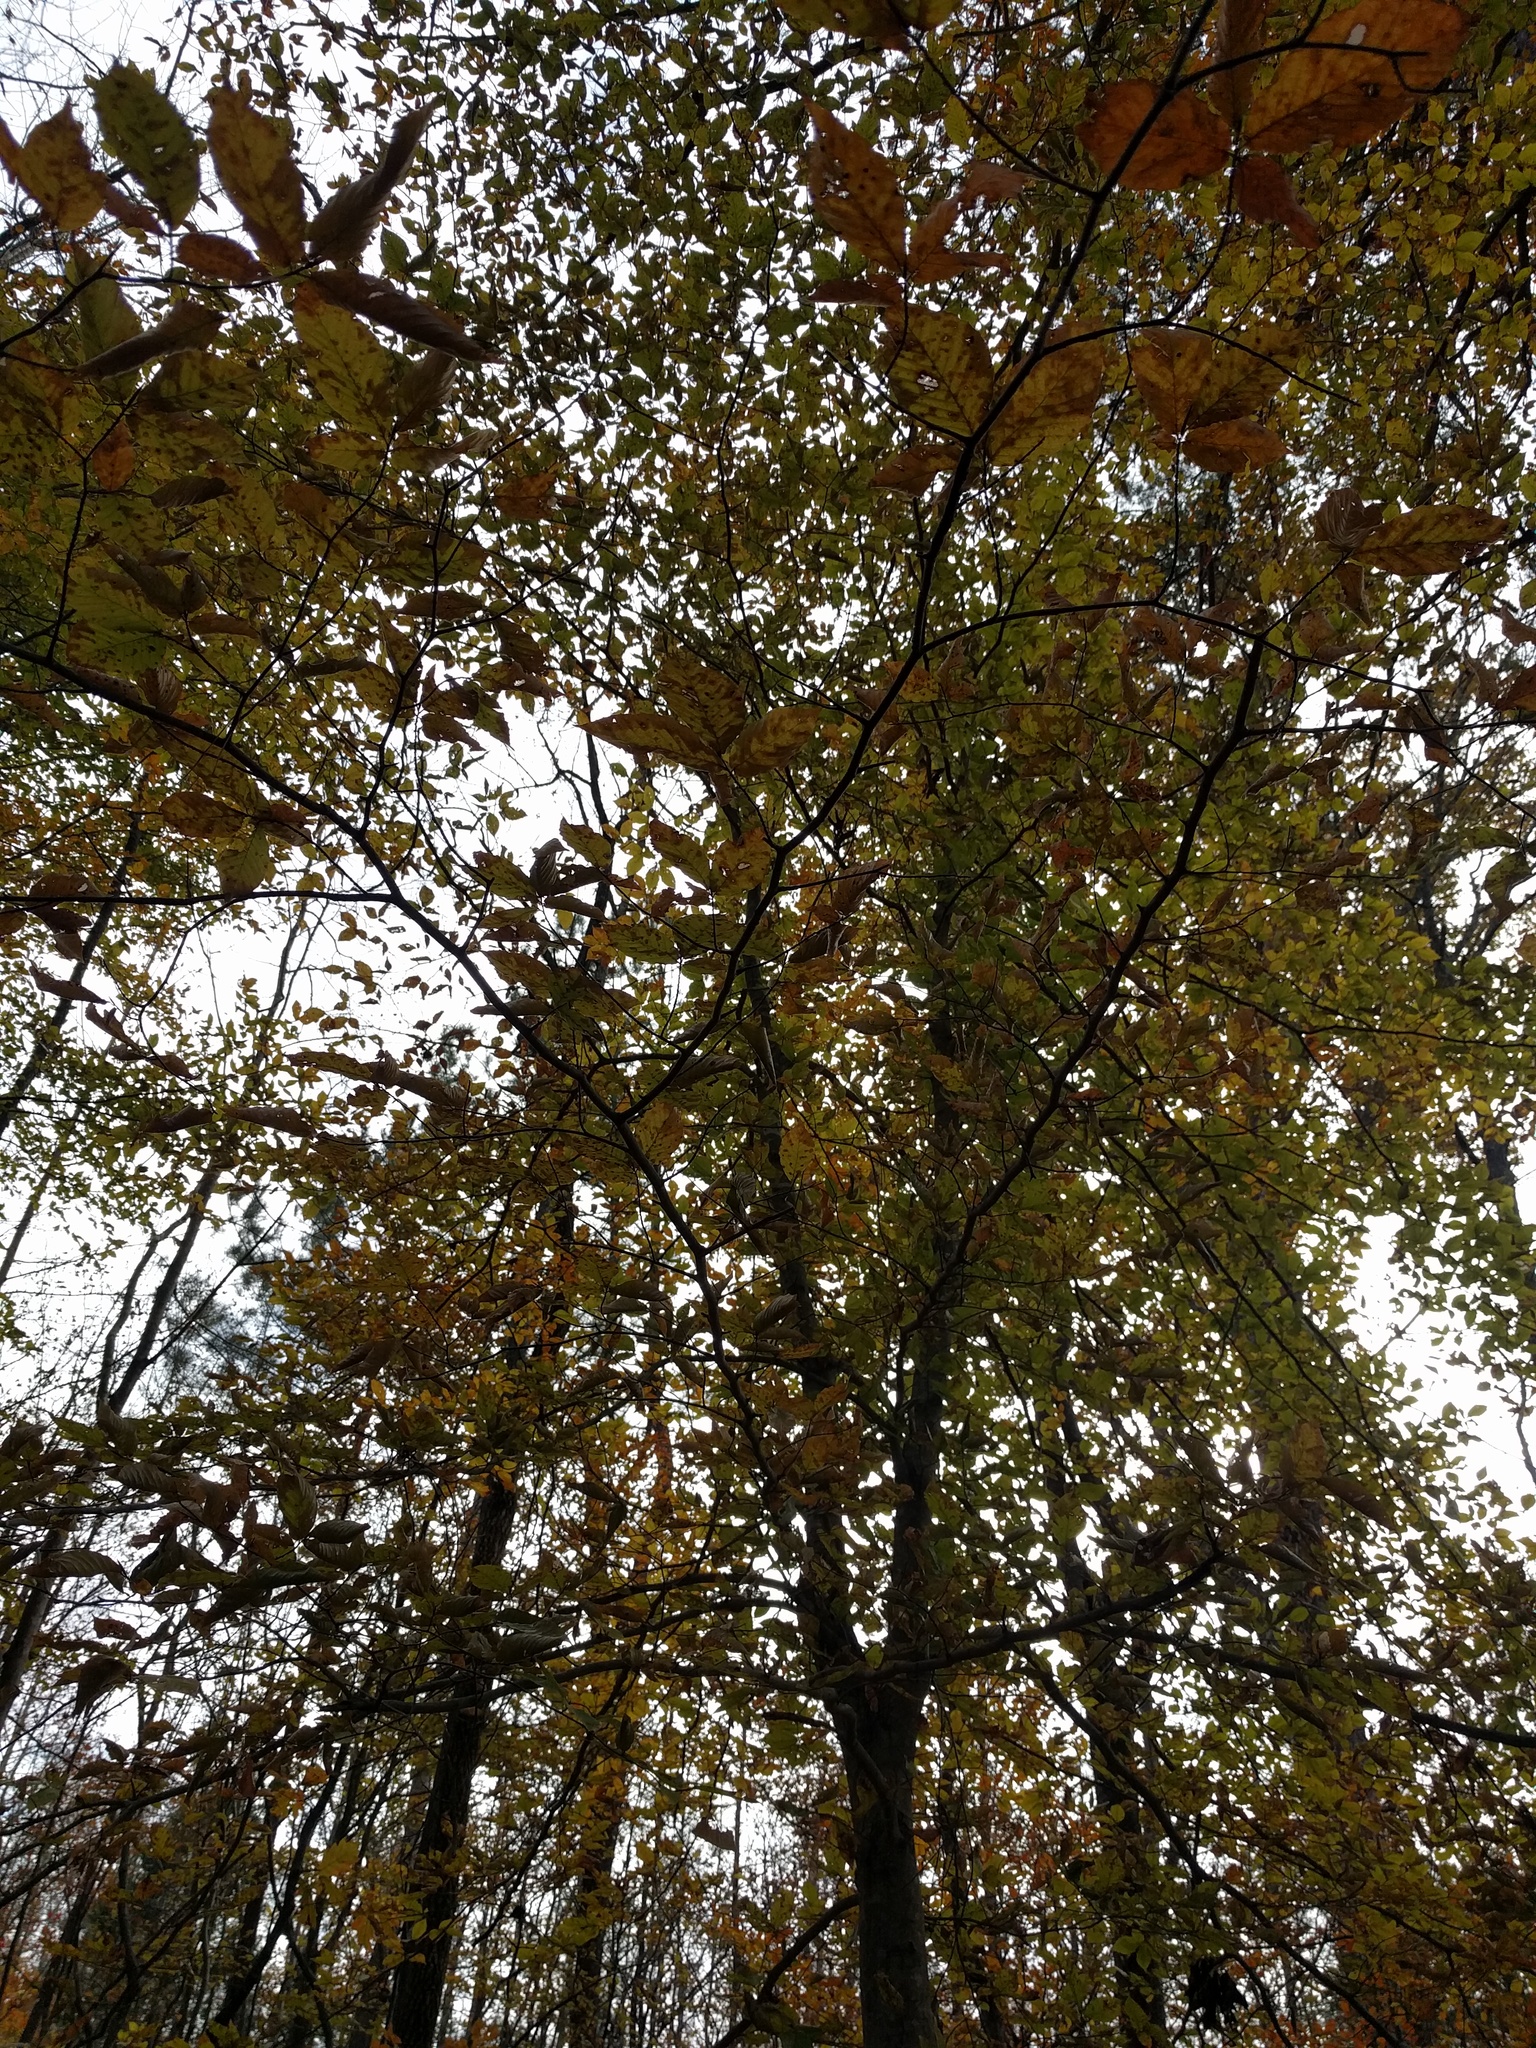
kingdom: Plantae
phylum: Tracheophyta
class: Magnoliopsida
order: Fagales
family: Fagaceae
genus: Fagus
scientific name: Fagus grandifolia
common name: American beech
